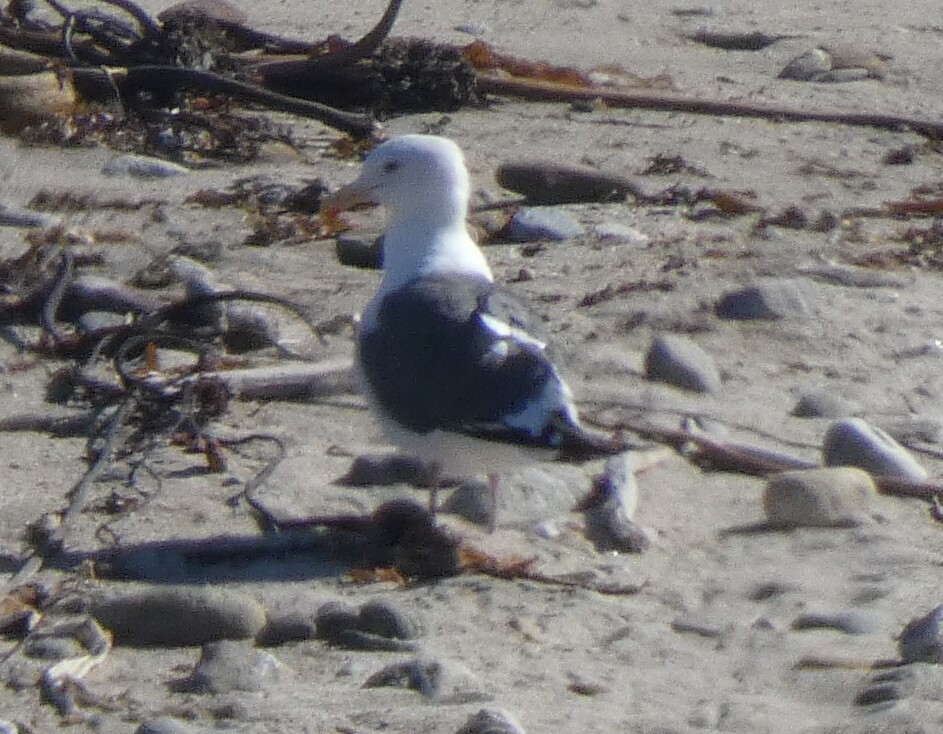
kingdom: Animalia
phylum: Chordata
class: Aves
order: Charadriiformes
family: Laridae
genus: Larus
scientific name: Larus occidentalis
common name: Western gull
